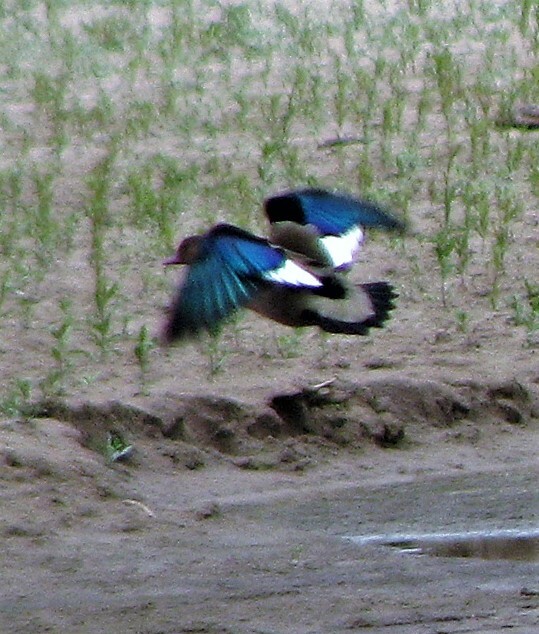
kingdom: Animalia
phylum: Chordata
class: Aves
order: Anseriformes
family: Anatidae
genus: Amazonetta
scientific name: Amazonetta brasiliensis
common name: Brazilian teal
